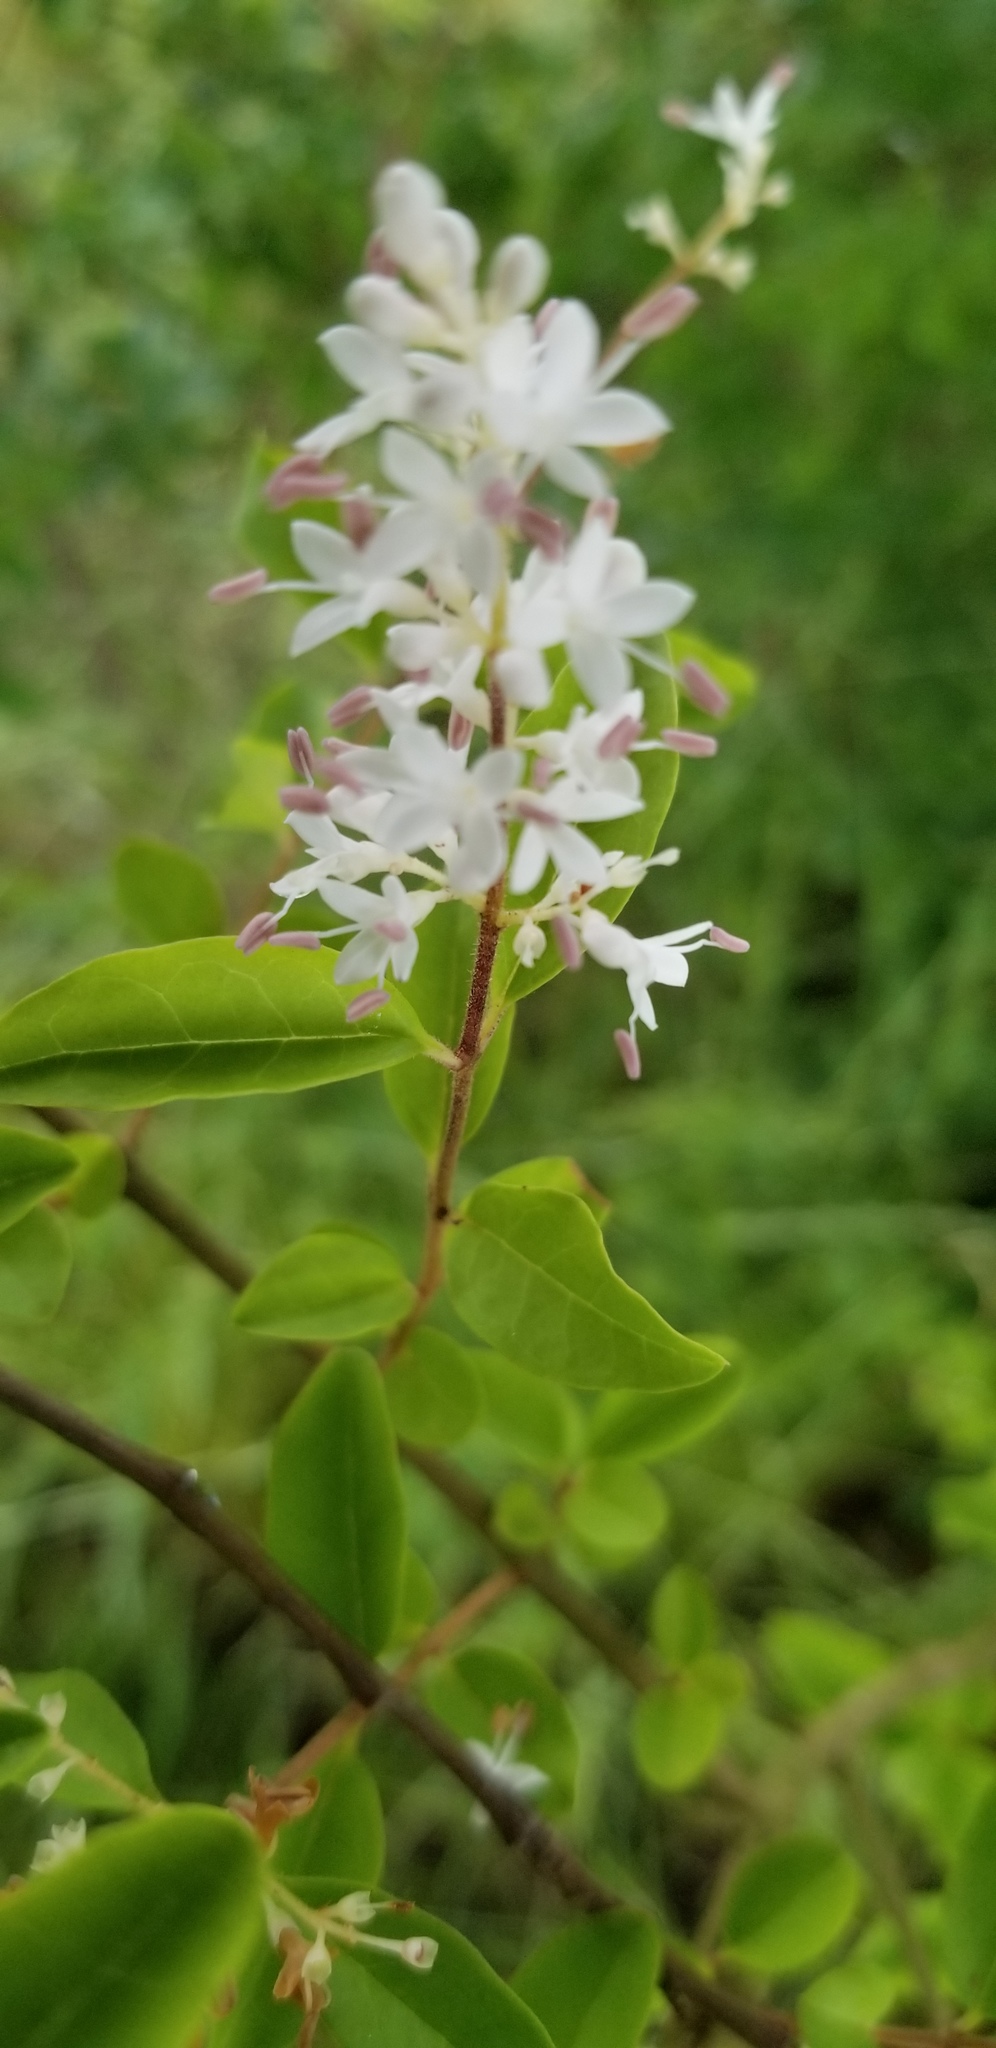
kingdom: Plantae
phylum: Tracheophyta
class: Magnoliopsida
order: Lamiales
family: Oleaceae
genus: Ligustrum
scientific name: Ligustrum sinense
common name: Chinese privet
